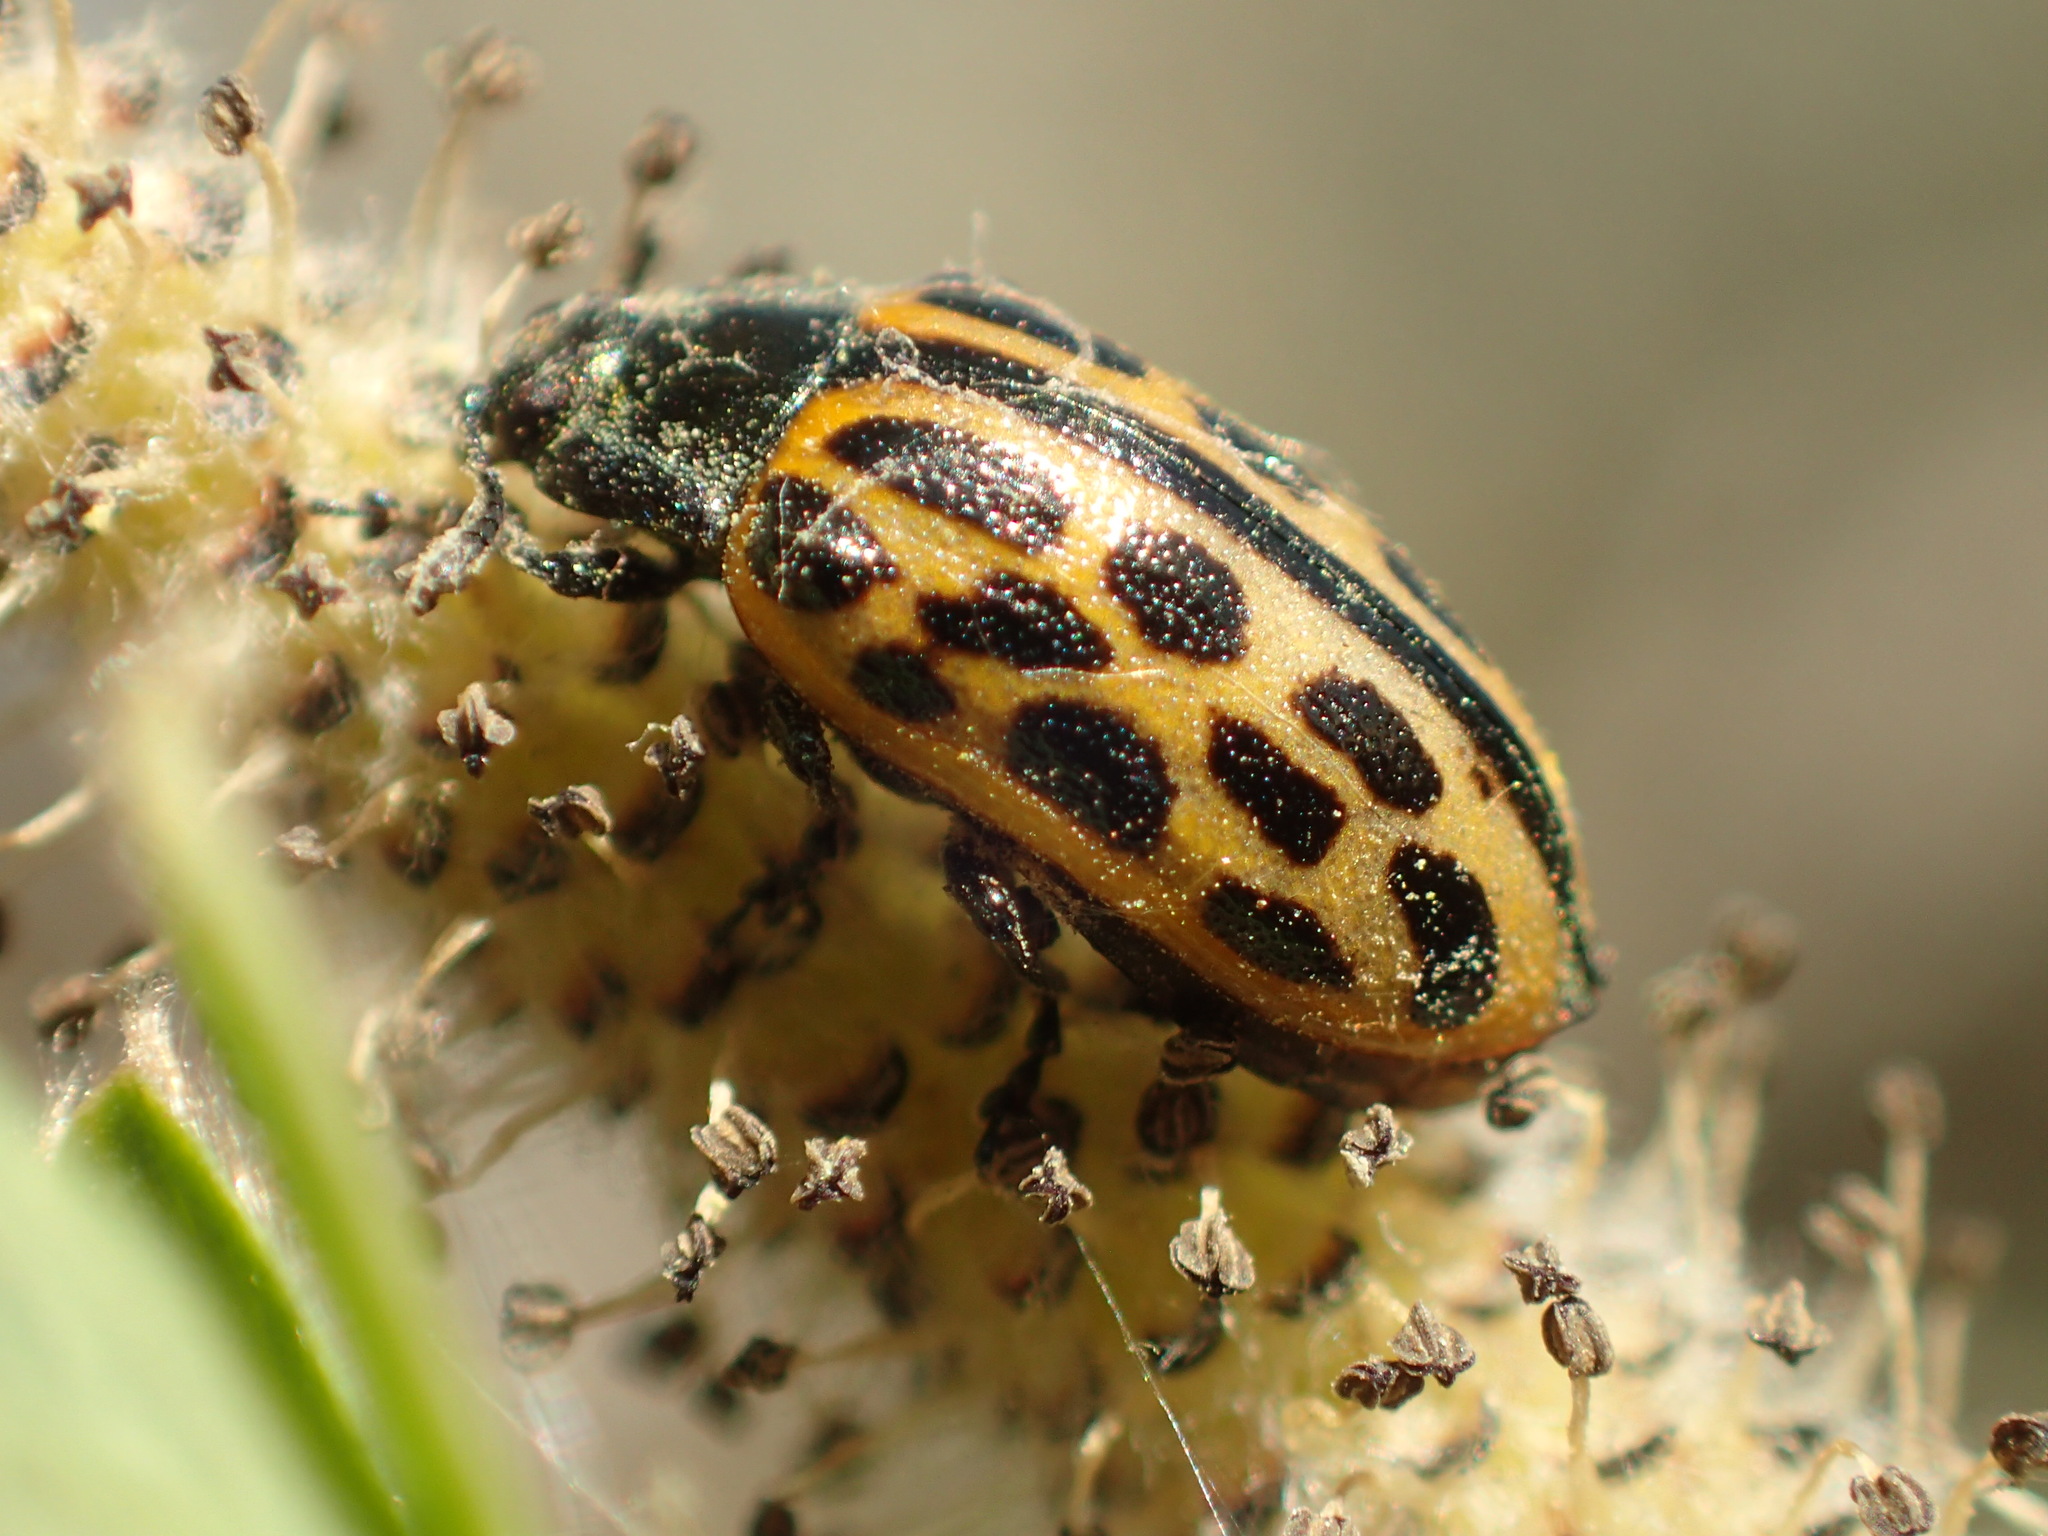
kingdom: Animalia
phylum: Arthropoda
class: Insecta
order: Coleoptera
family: Chrysomelidae
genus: Chrysomela
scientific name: Chrysomela vigintipunctata
